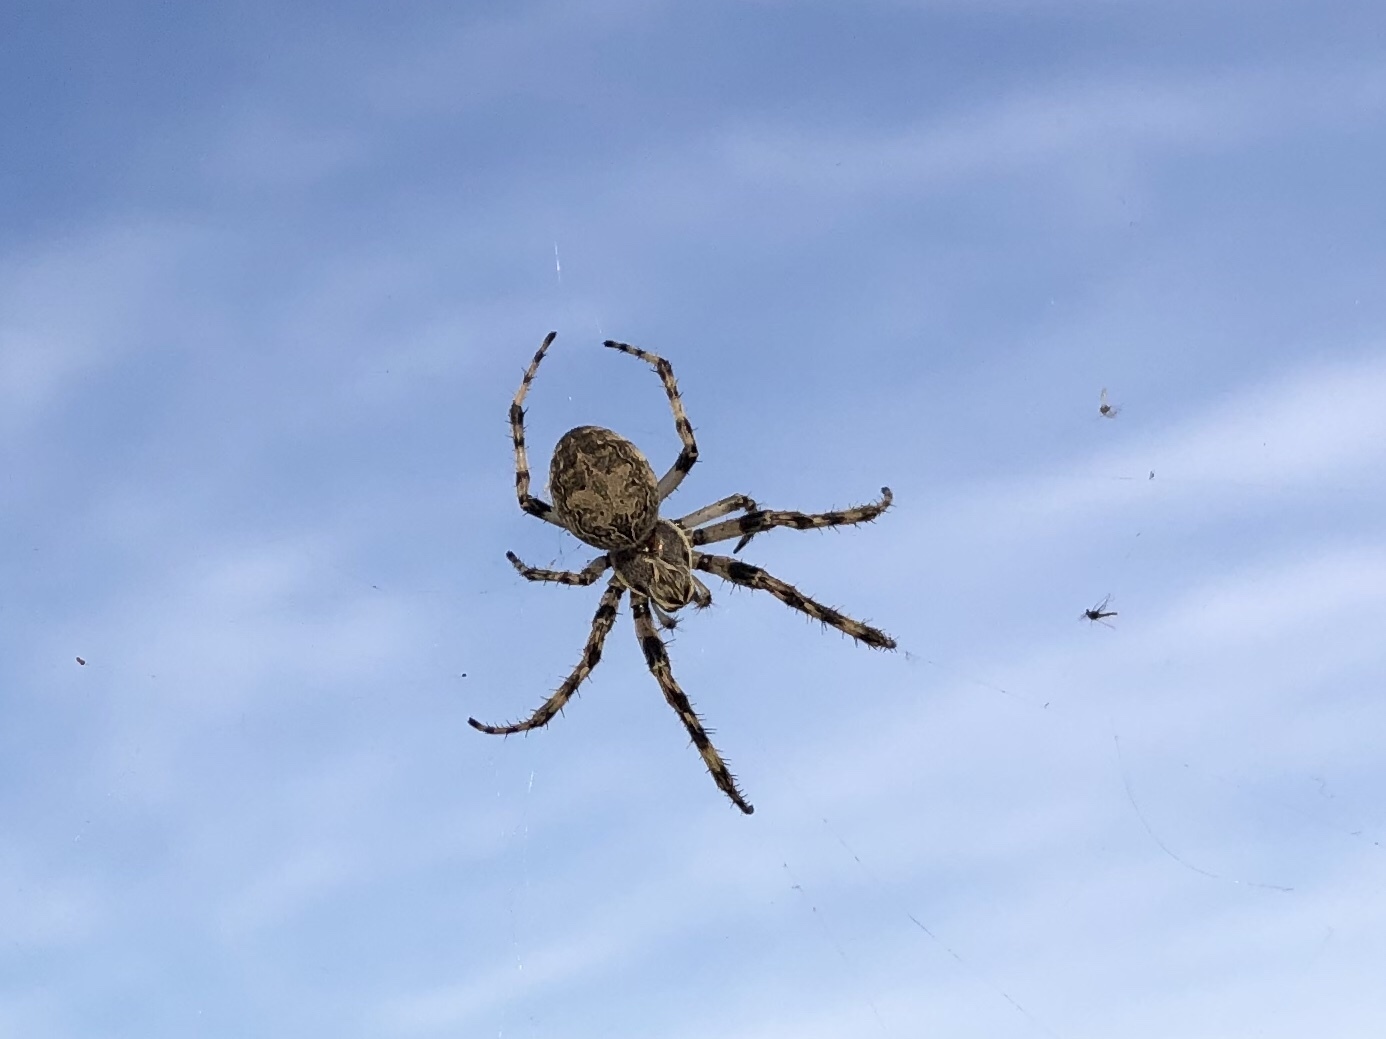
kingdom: Animalia
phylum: Arthropoda
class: Arachnida
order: Araneae
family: Araneidae
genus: Larinioides
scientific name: Larinioides sclopetarius
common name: Bridge orbweaver
